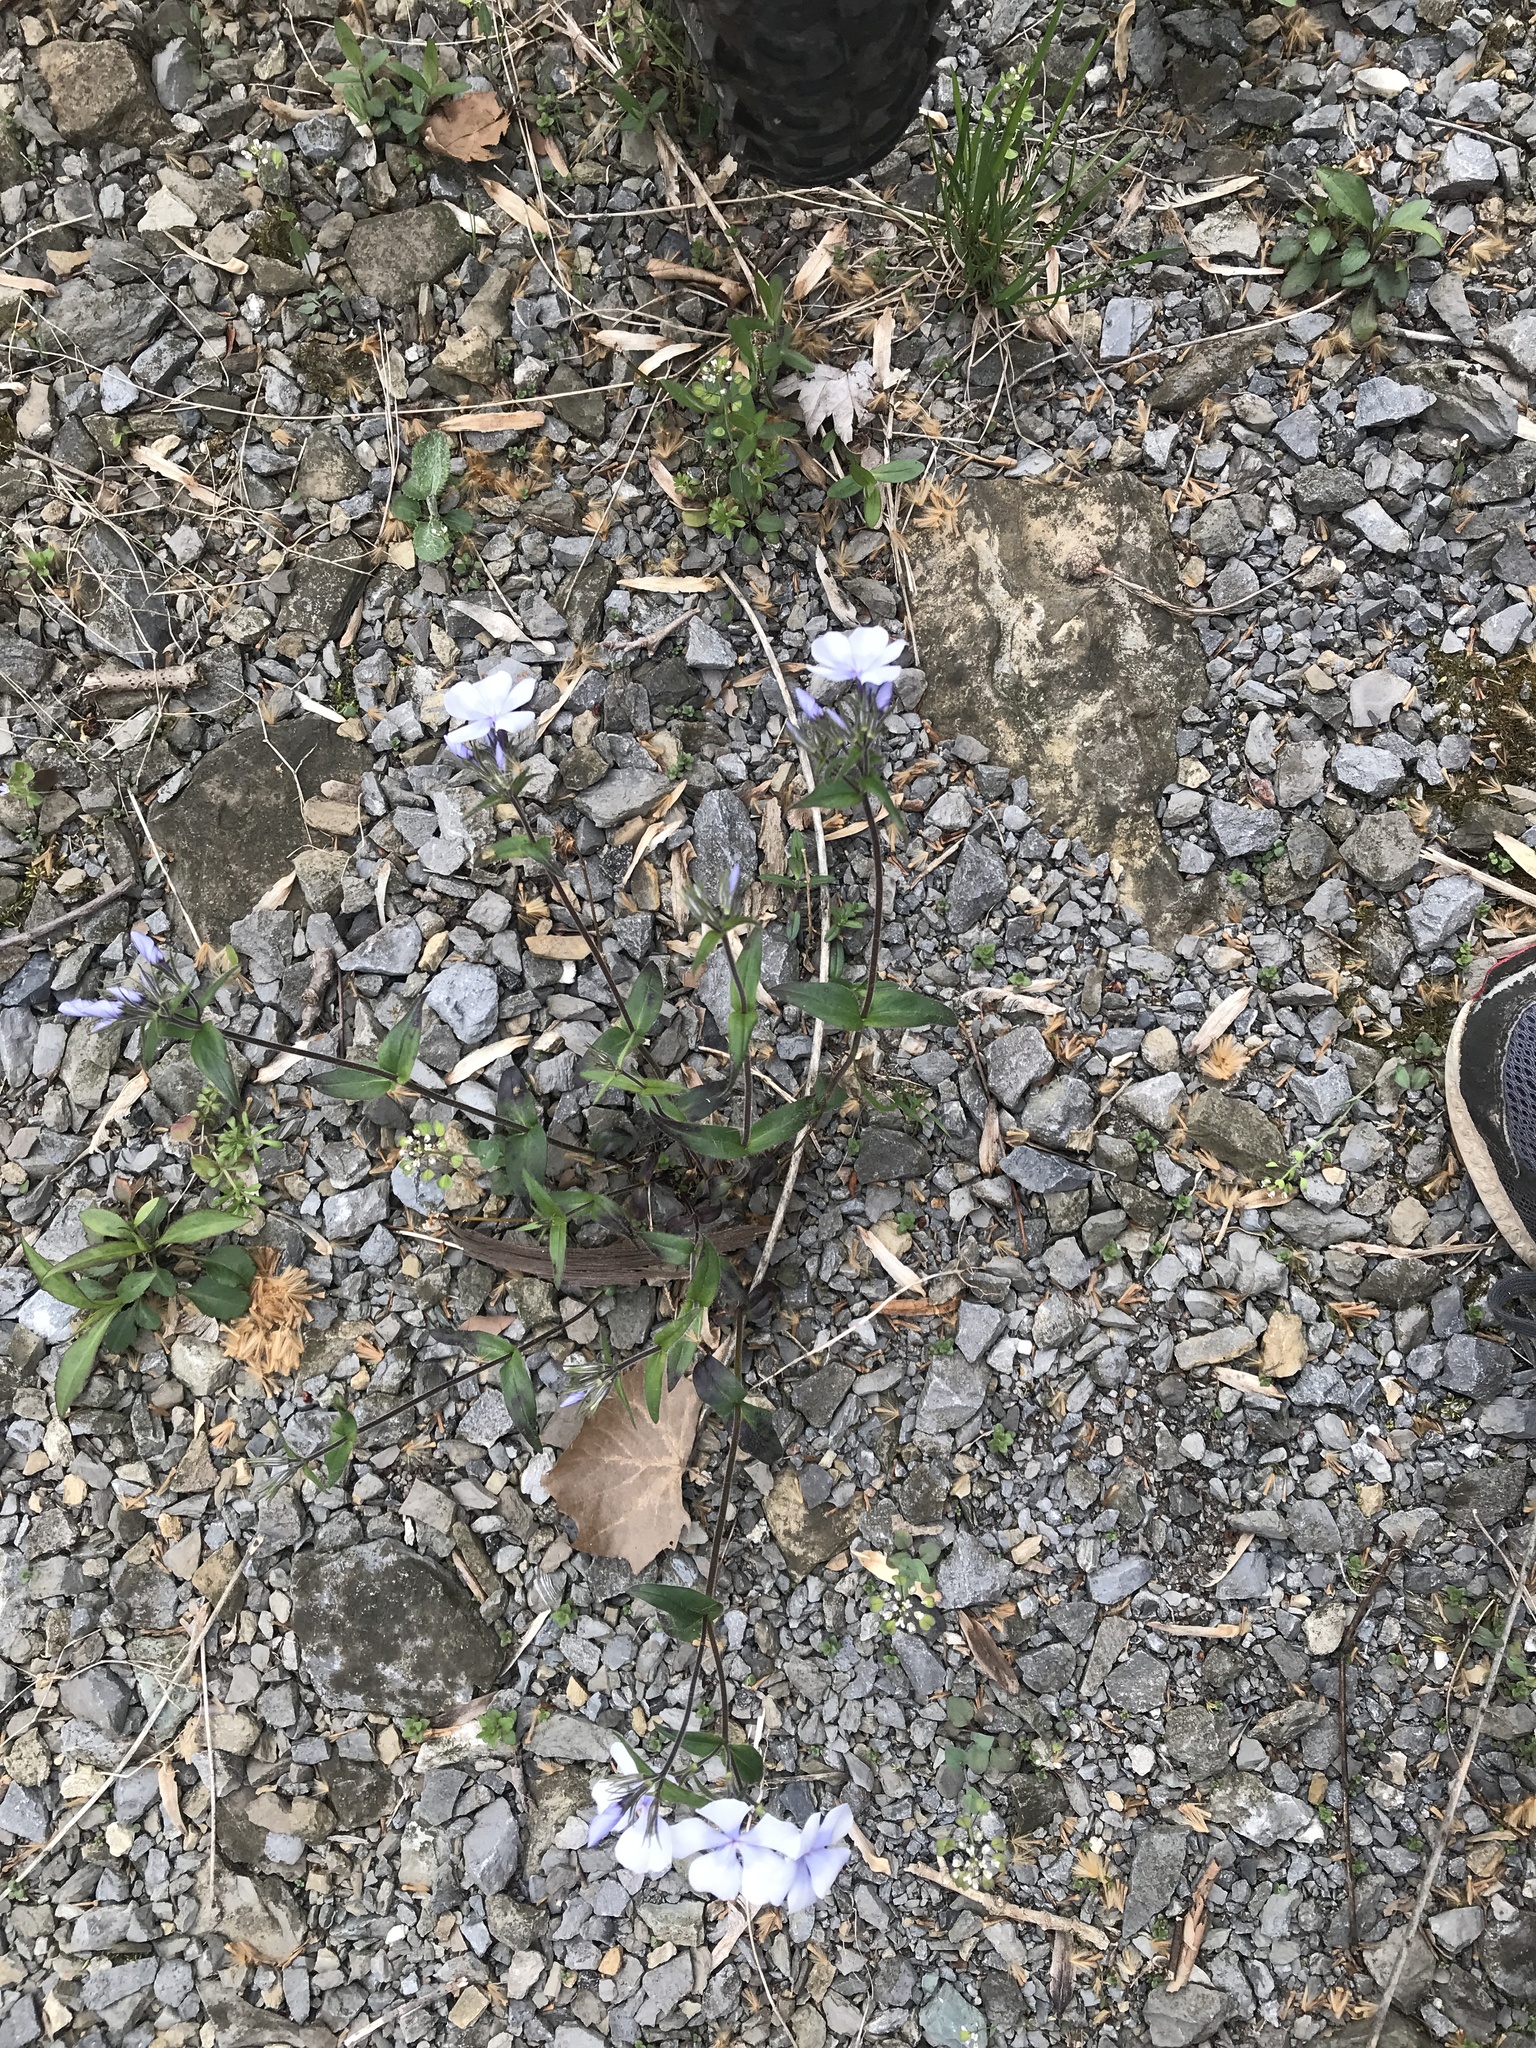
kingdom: Plantae
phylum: Tracheophyta
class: Magnoliopsida
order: Ericales
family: Polemoniaceae
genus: Phlox
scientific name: Phlox divaricata
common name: Blue phlox
